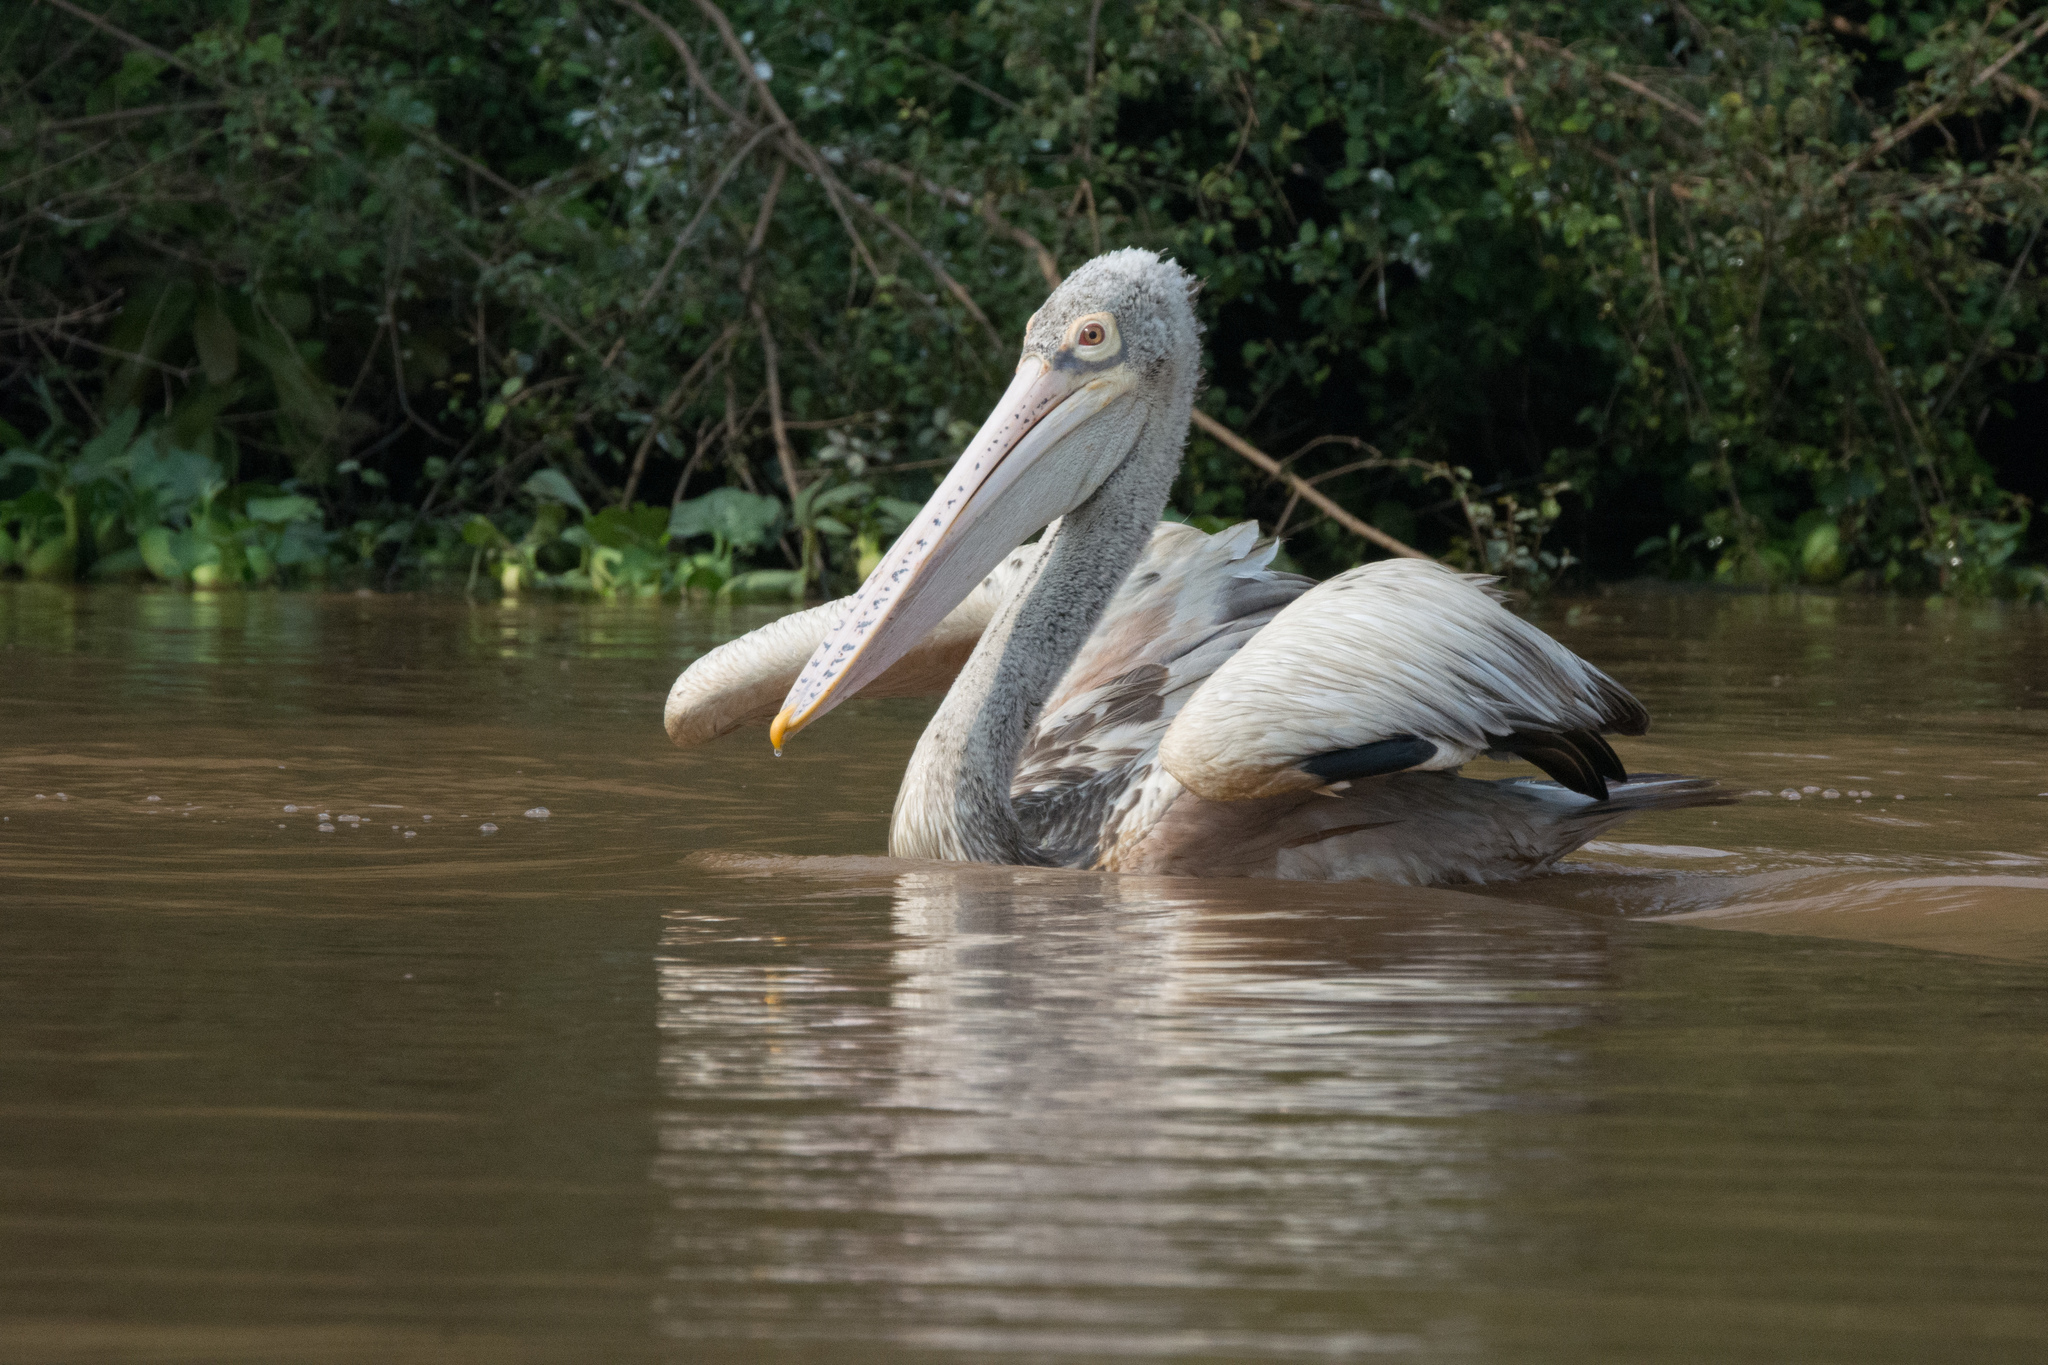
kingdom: Animalia
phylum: Chordata
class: Aves
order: Pelecaniformes
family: Pelecanidae
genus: Pelecanus
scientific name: Pelecanus philippensis
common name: Spot-billed pelican
